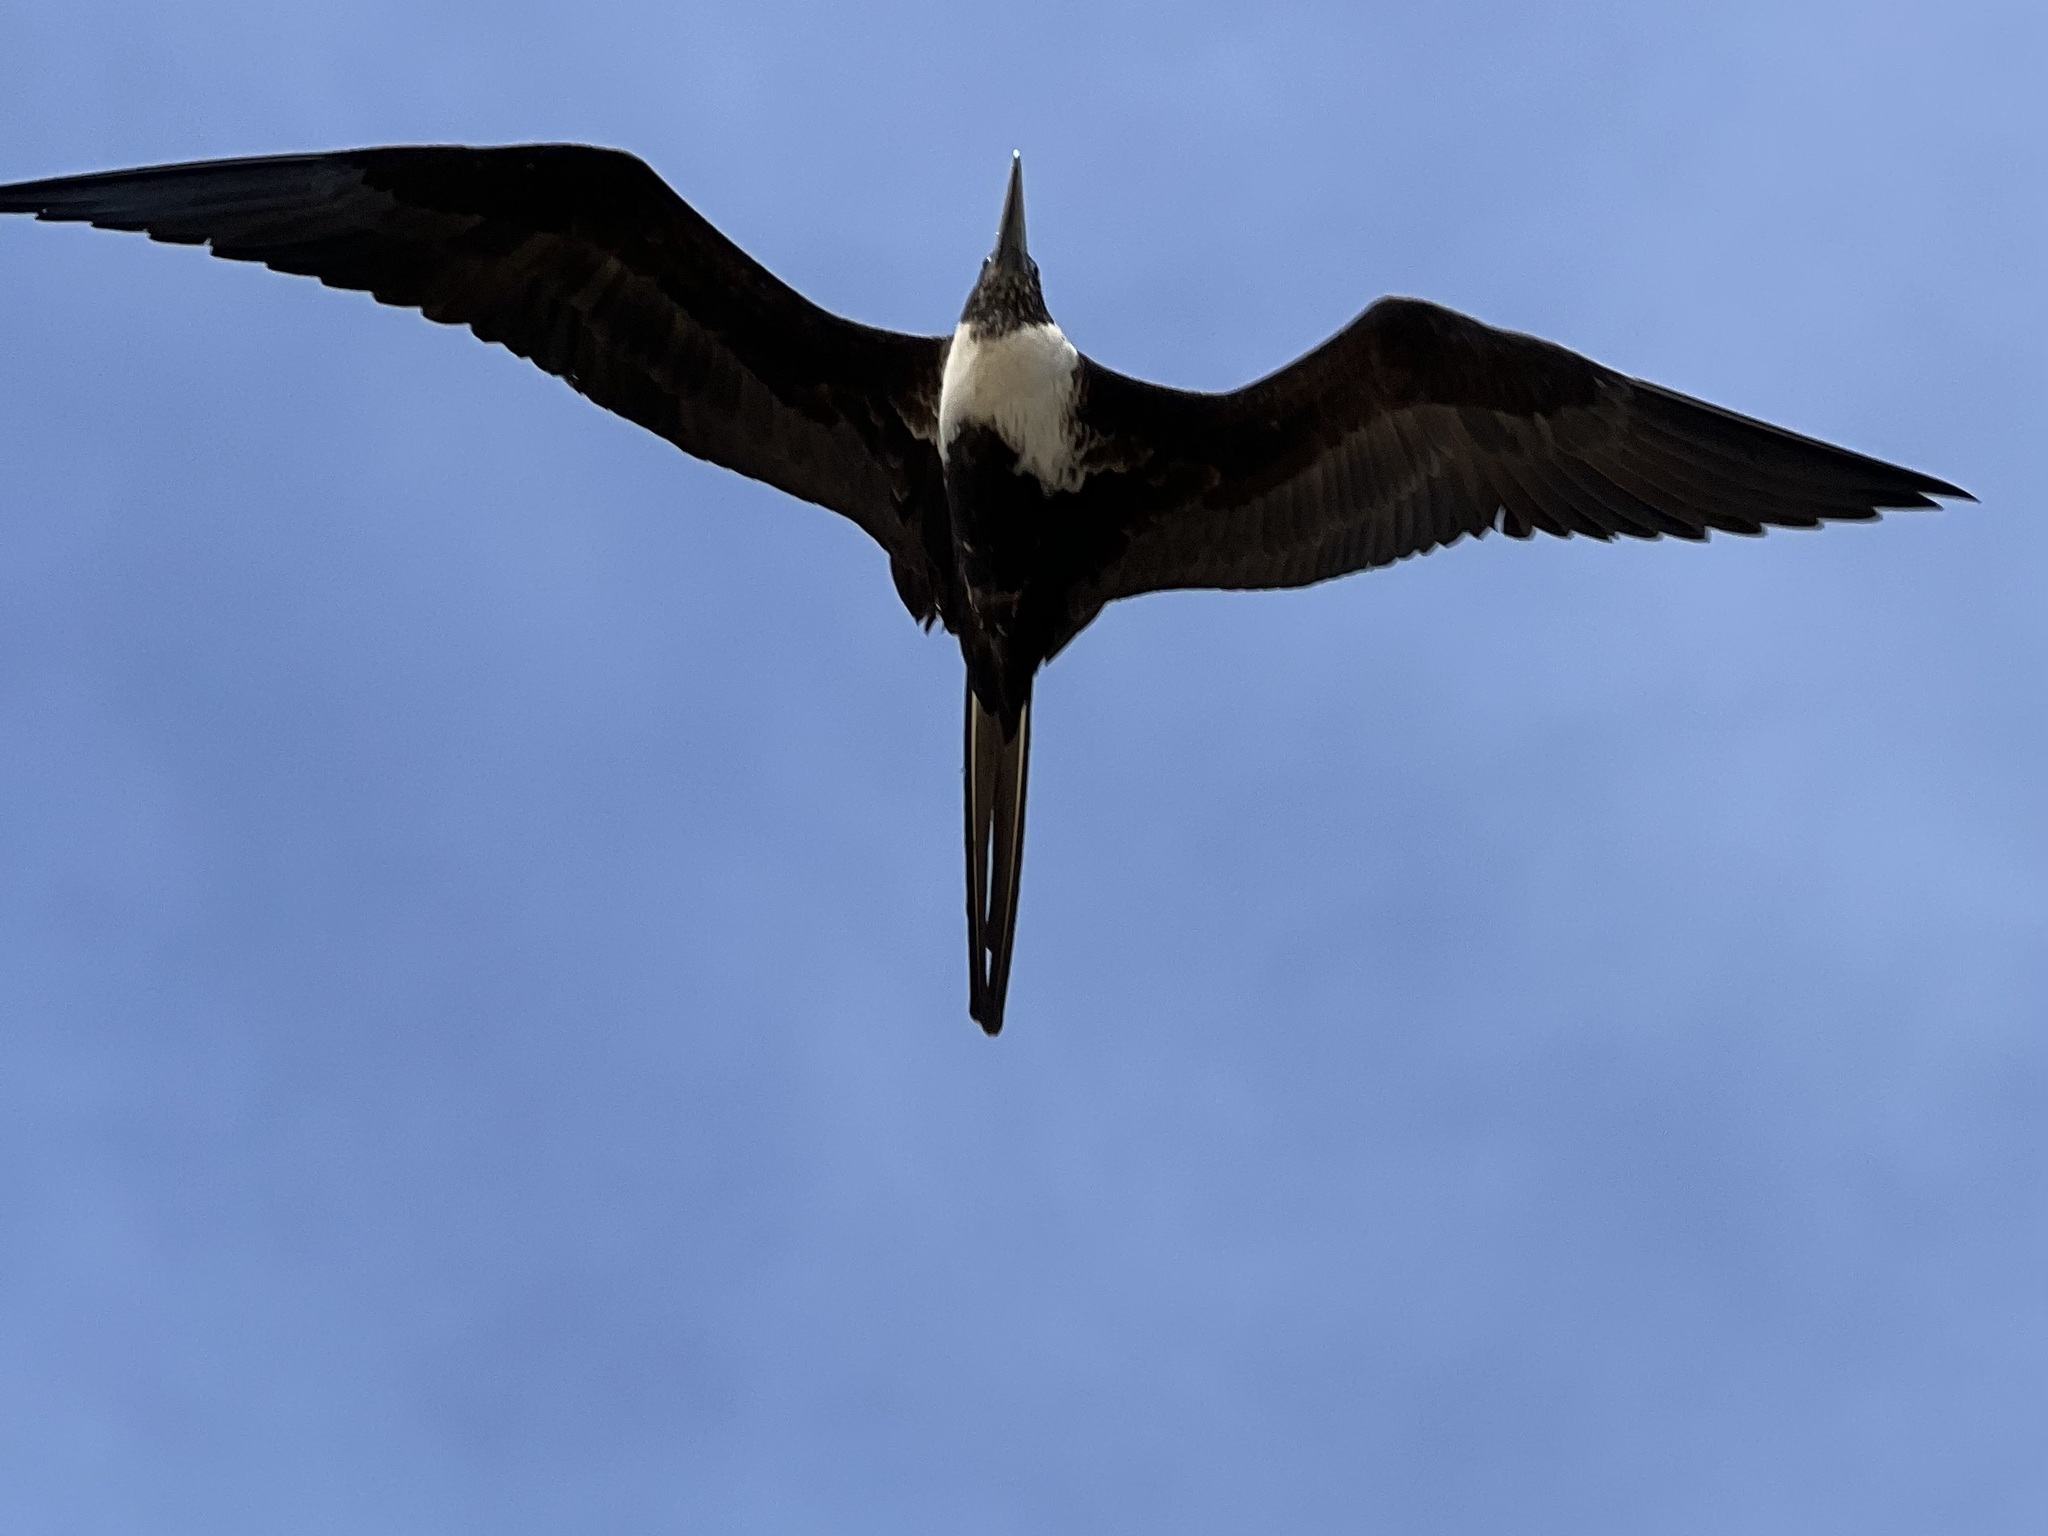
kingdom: Animalia
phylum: Chordata
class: Aves
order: Suliformes
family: Fregatidae
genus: Fregata
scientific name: Fregata magnificens
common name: Magnificent frigatebird
